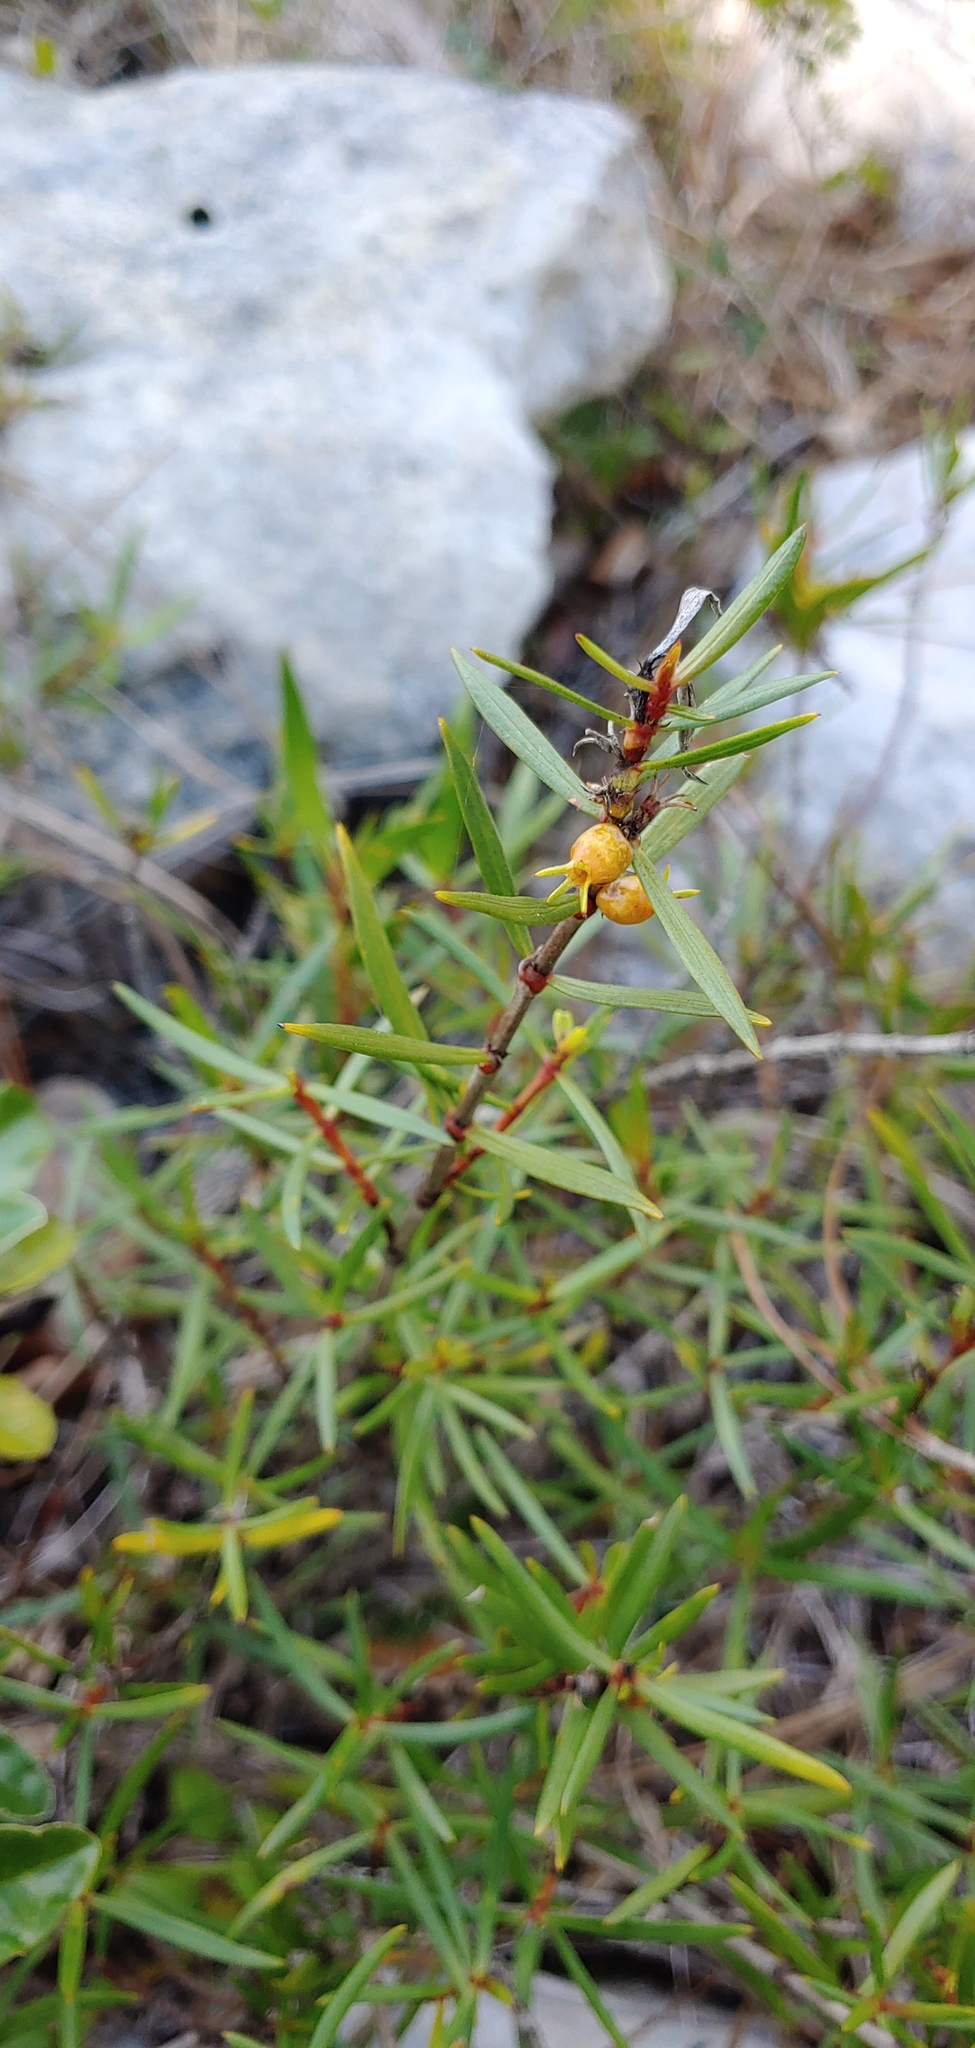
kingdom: Plantae
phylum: Tracheophyta
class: Magnoliopsida
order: Gentianales
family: Rubiaceae
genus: Ernodea
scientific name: Ernodea littoralis
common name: Beach creeper
